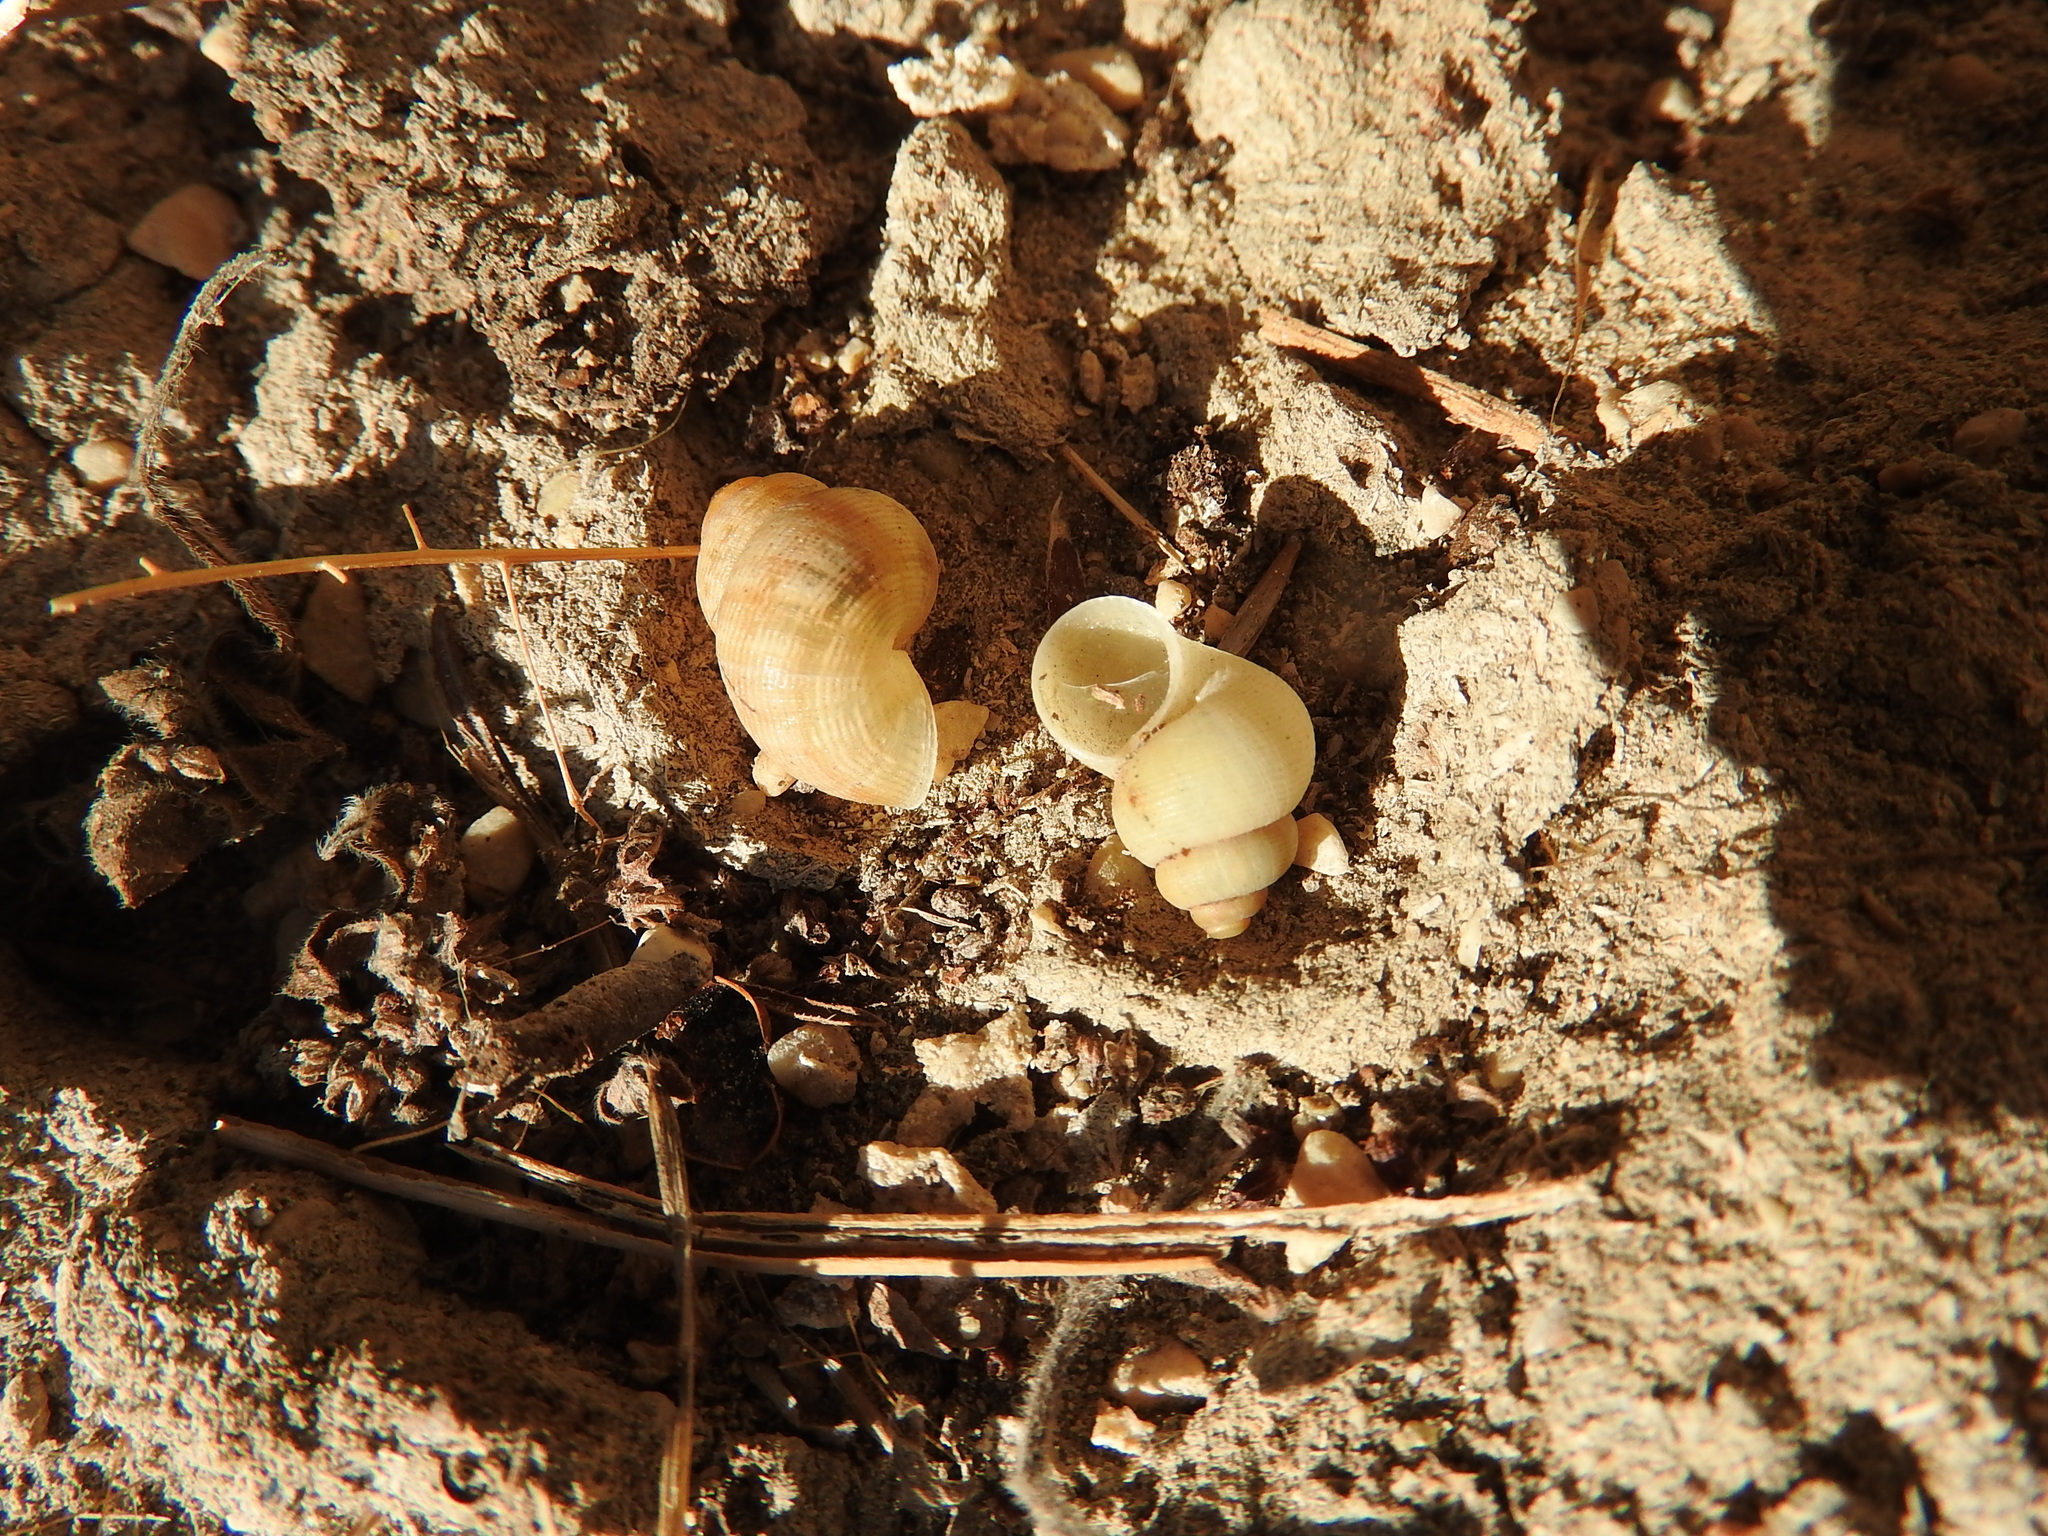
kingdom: Animalia
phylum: Mollusca
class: Gastropoda
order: Littorinimorpha
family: Pomatiidae
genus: Pomatias
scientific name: Pomatias elegans
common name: Red-mouthed snail
